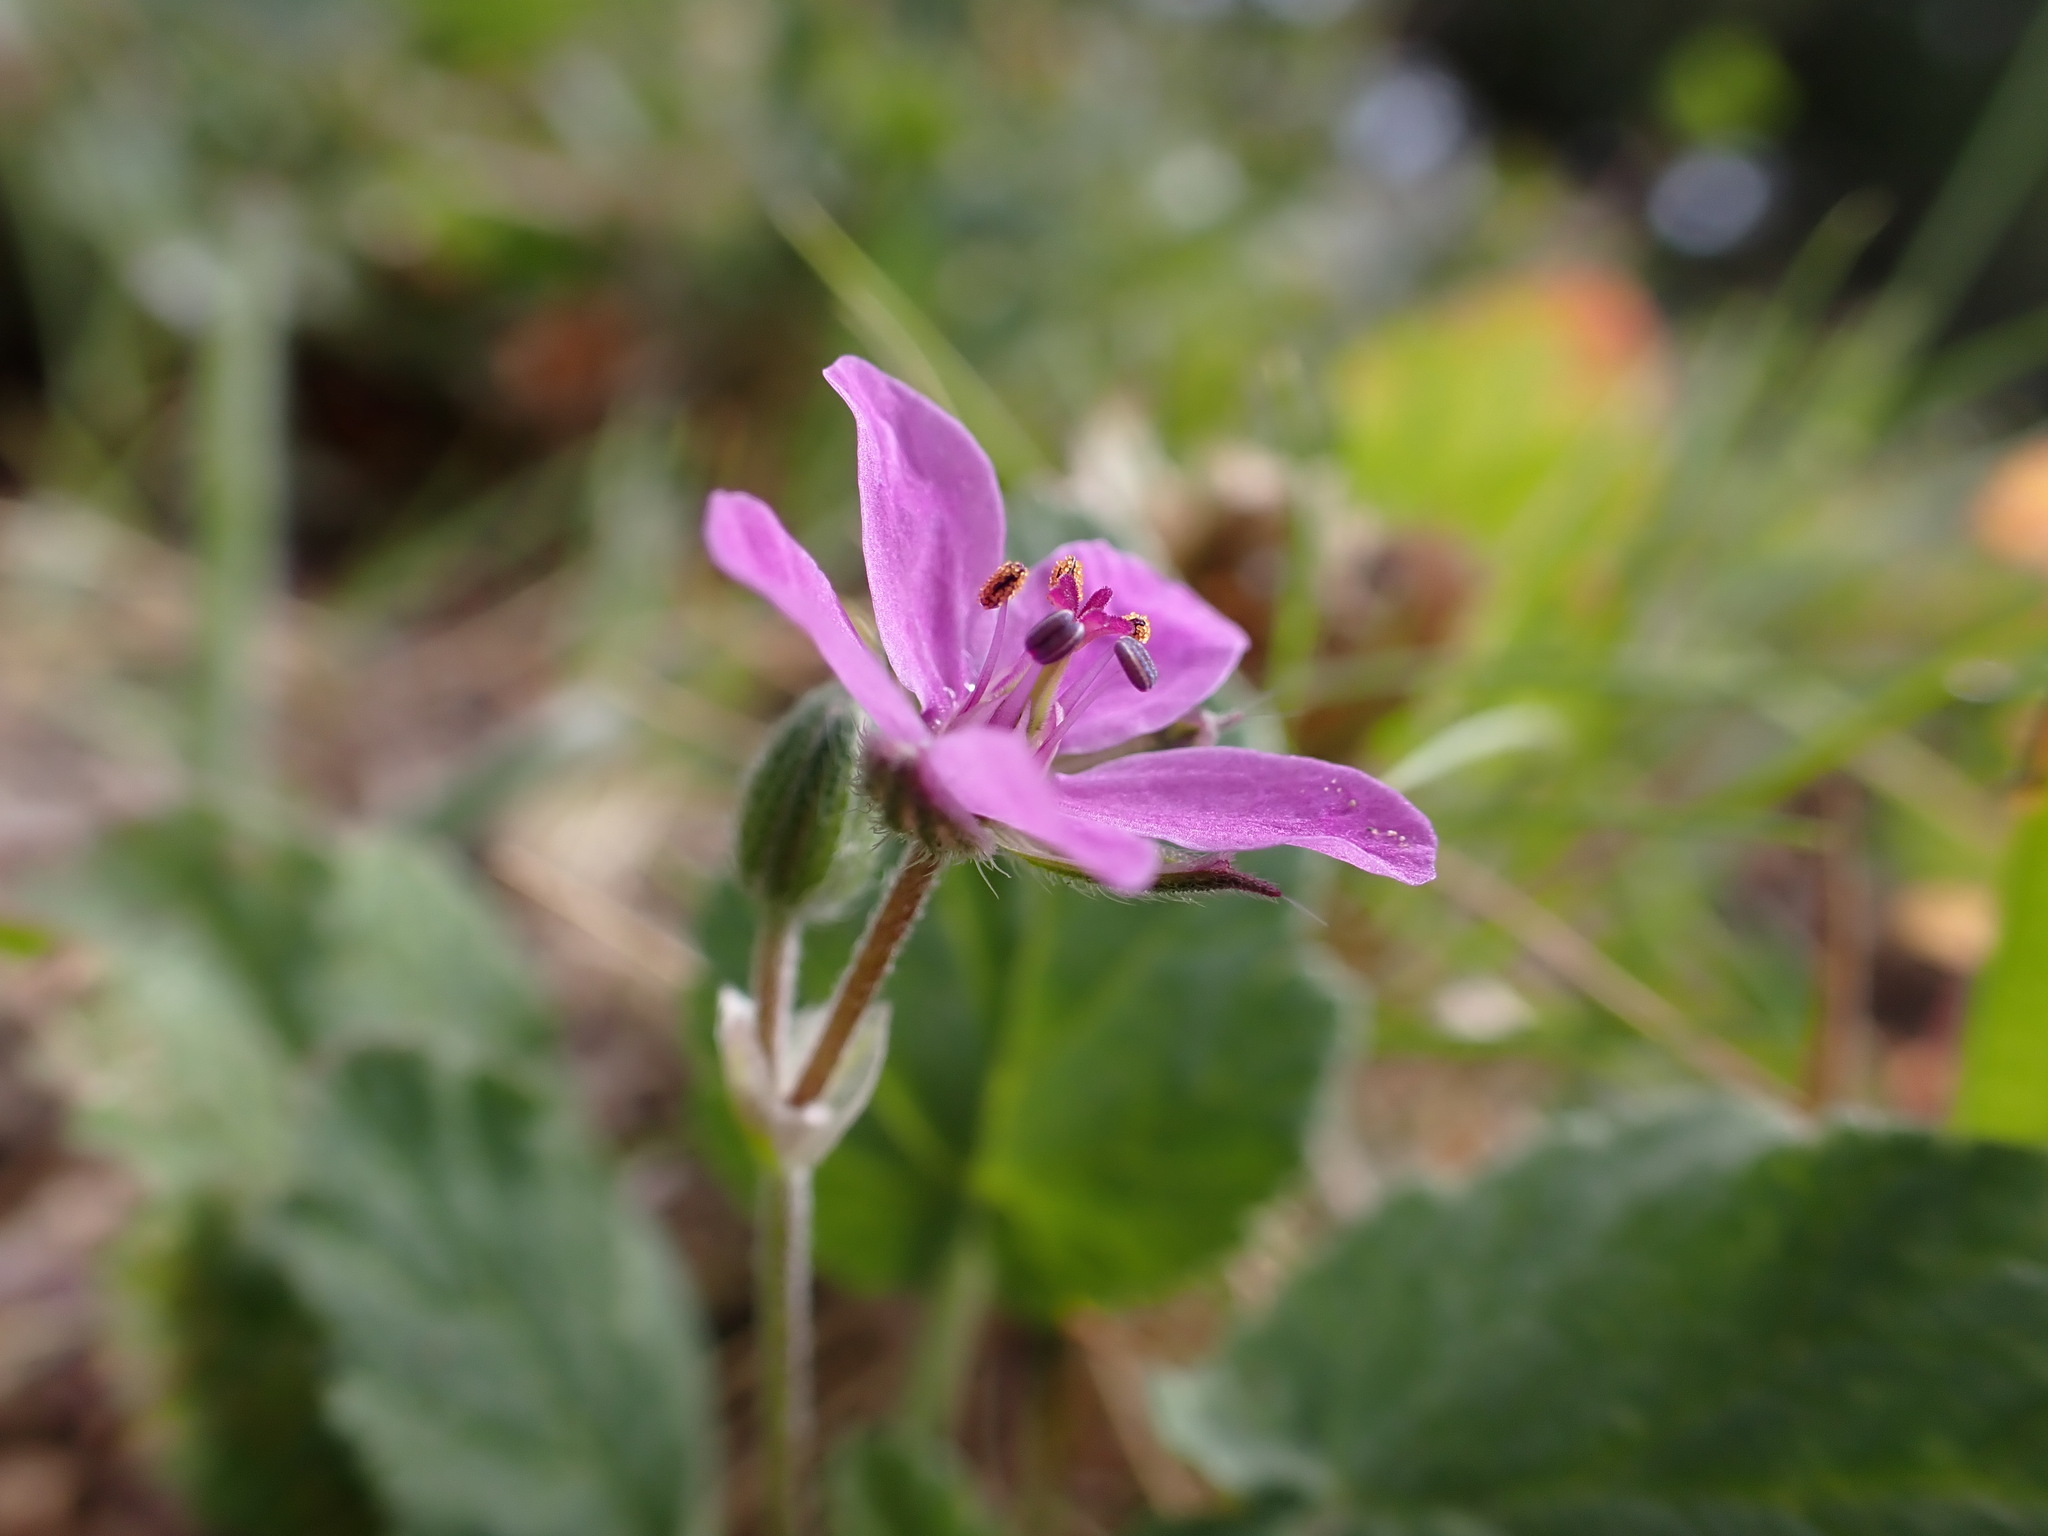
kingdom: Plantae
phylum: Tracheophyta
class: Magnoliopsida
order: Geraniales
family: Geraniaceae
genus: Erodium
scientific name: Erodium malacoides
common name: Soft stork's-bill
